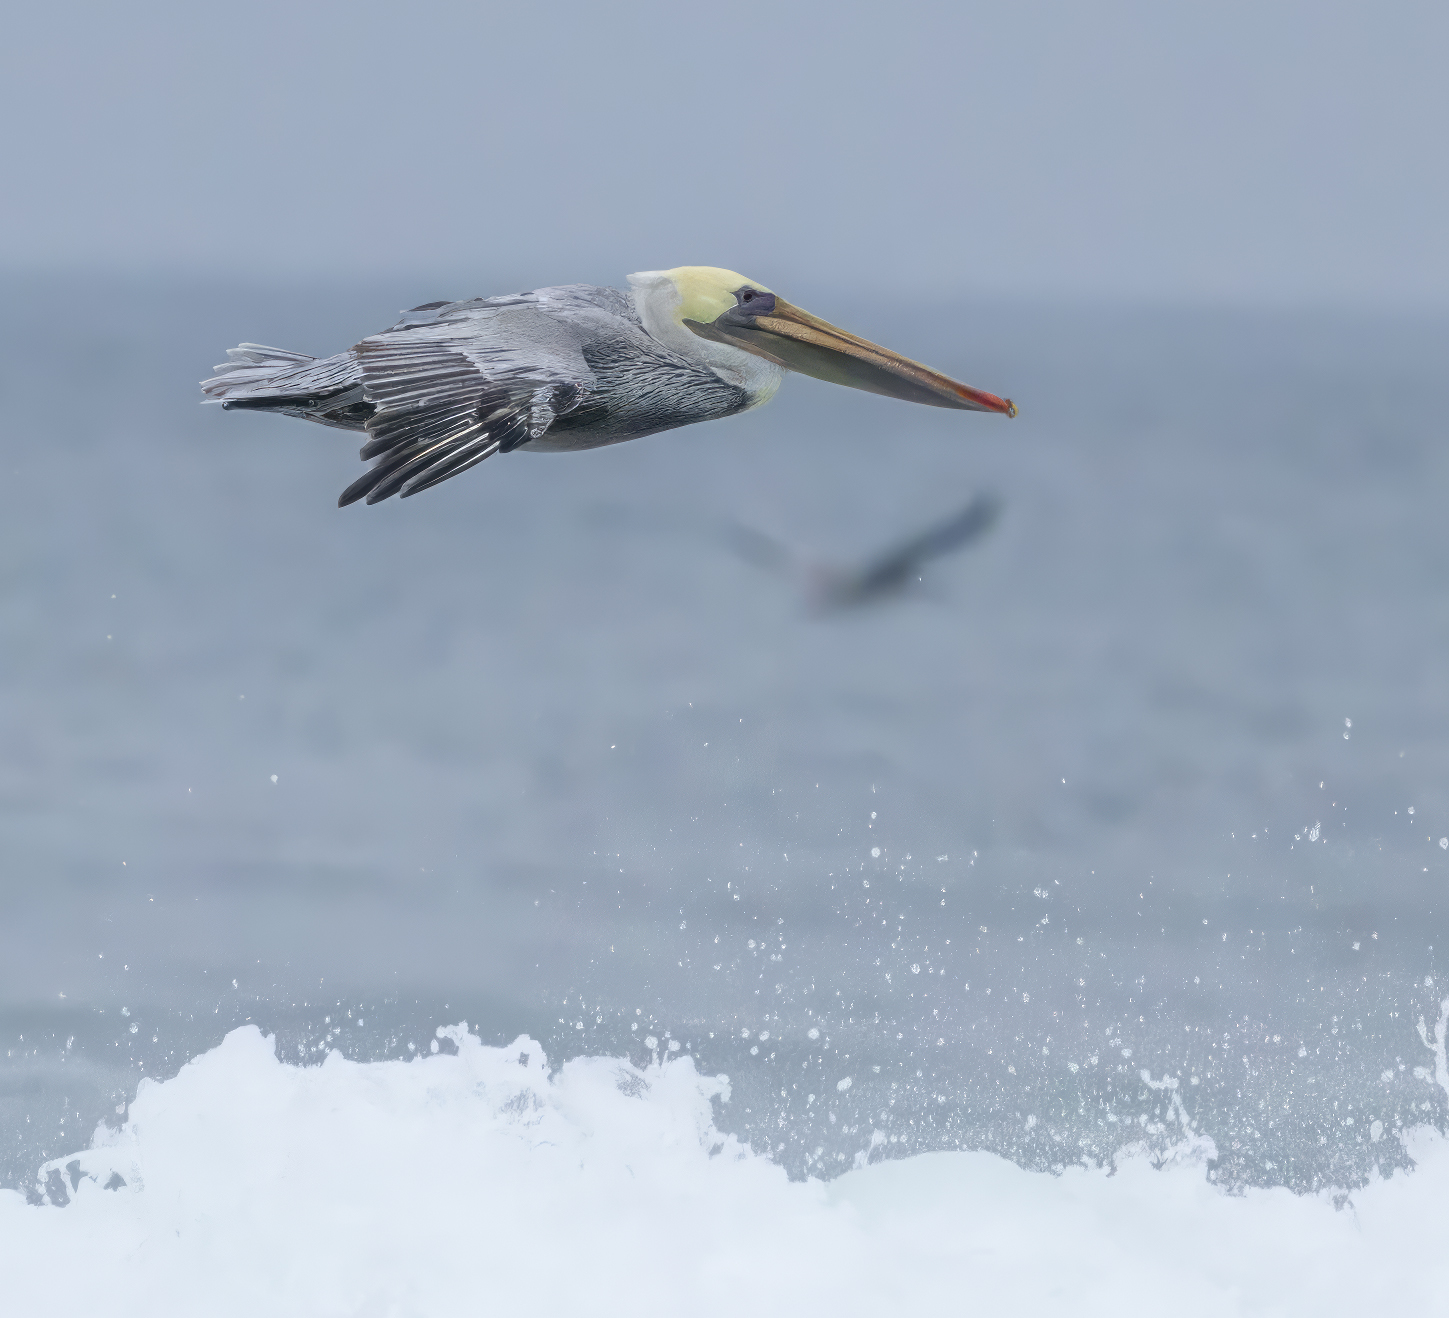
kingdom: Animalia
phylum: Chordata
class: Aves
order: Pelecaniformes
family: Pelecanidae
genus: Pelecanus
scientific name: Pelecanus occidentalis
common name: Brown pelican
